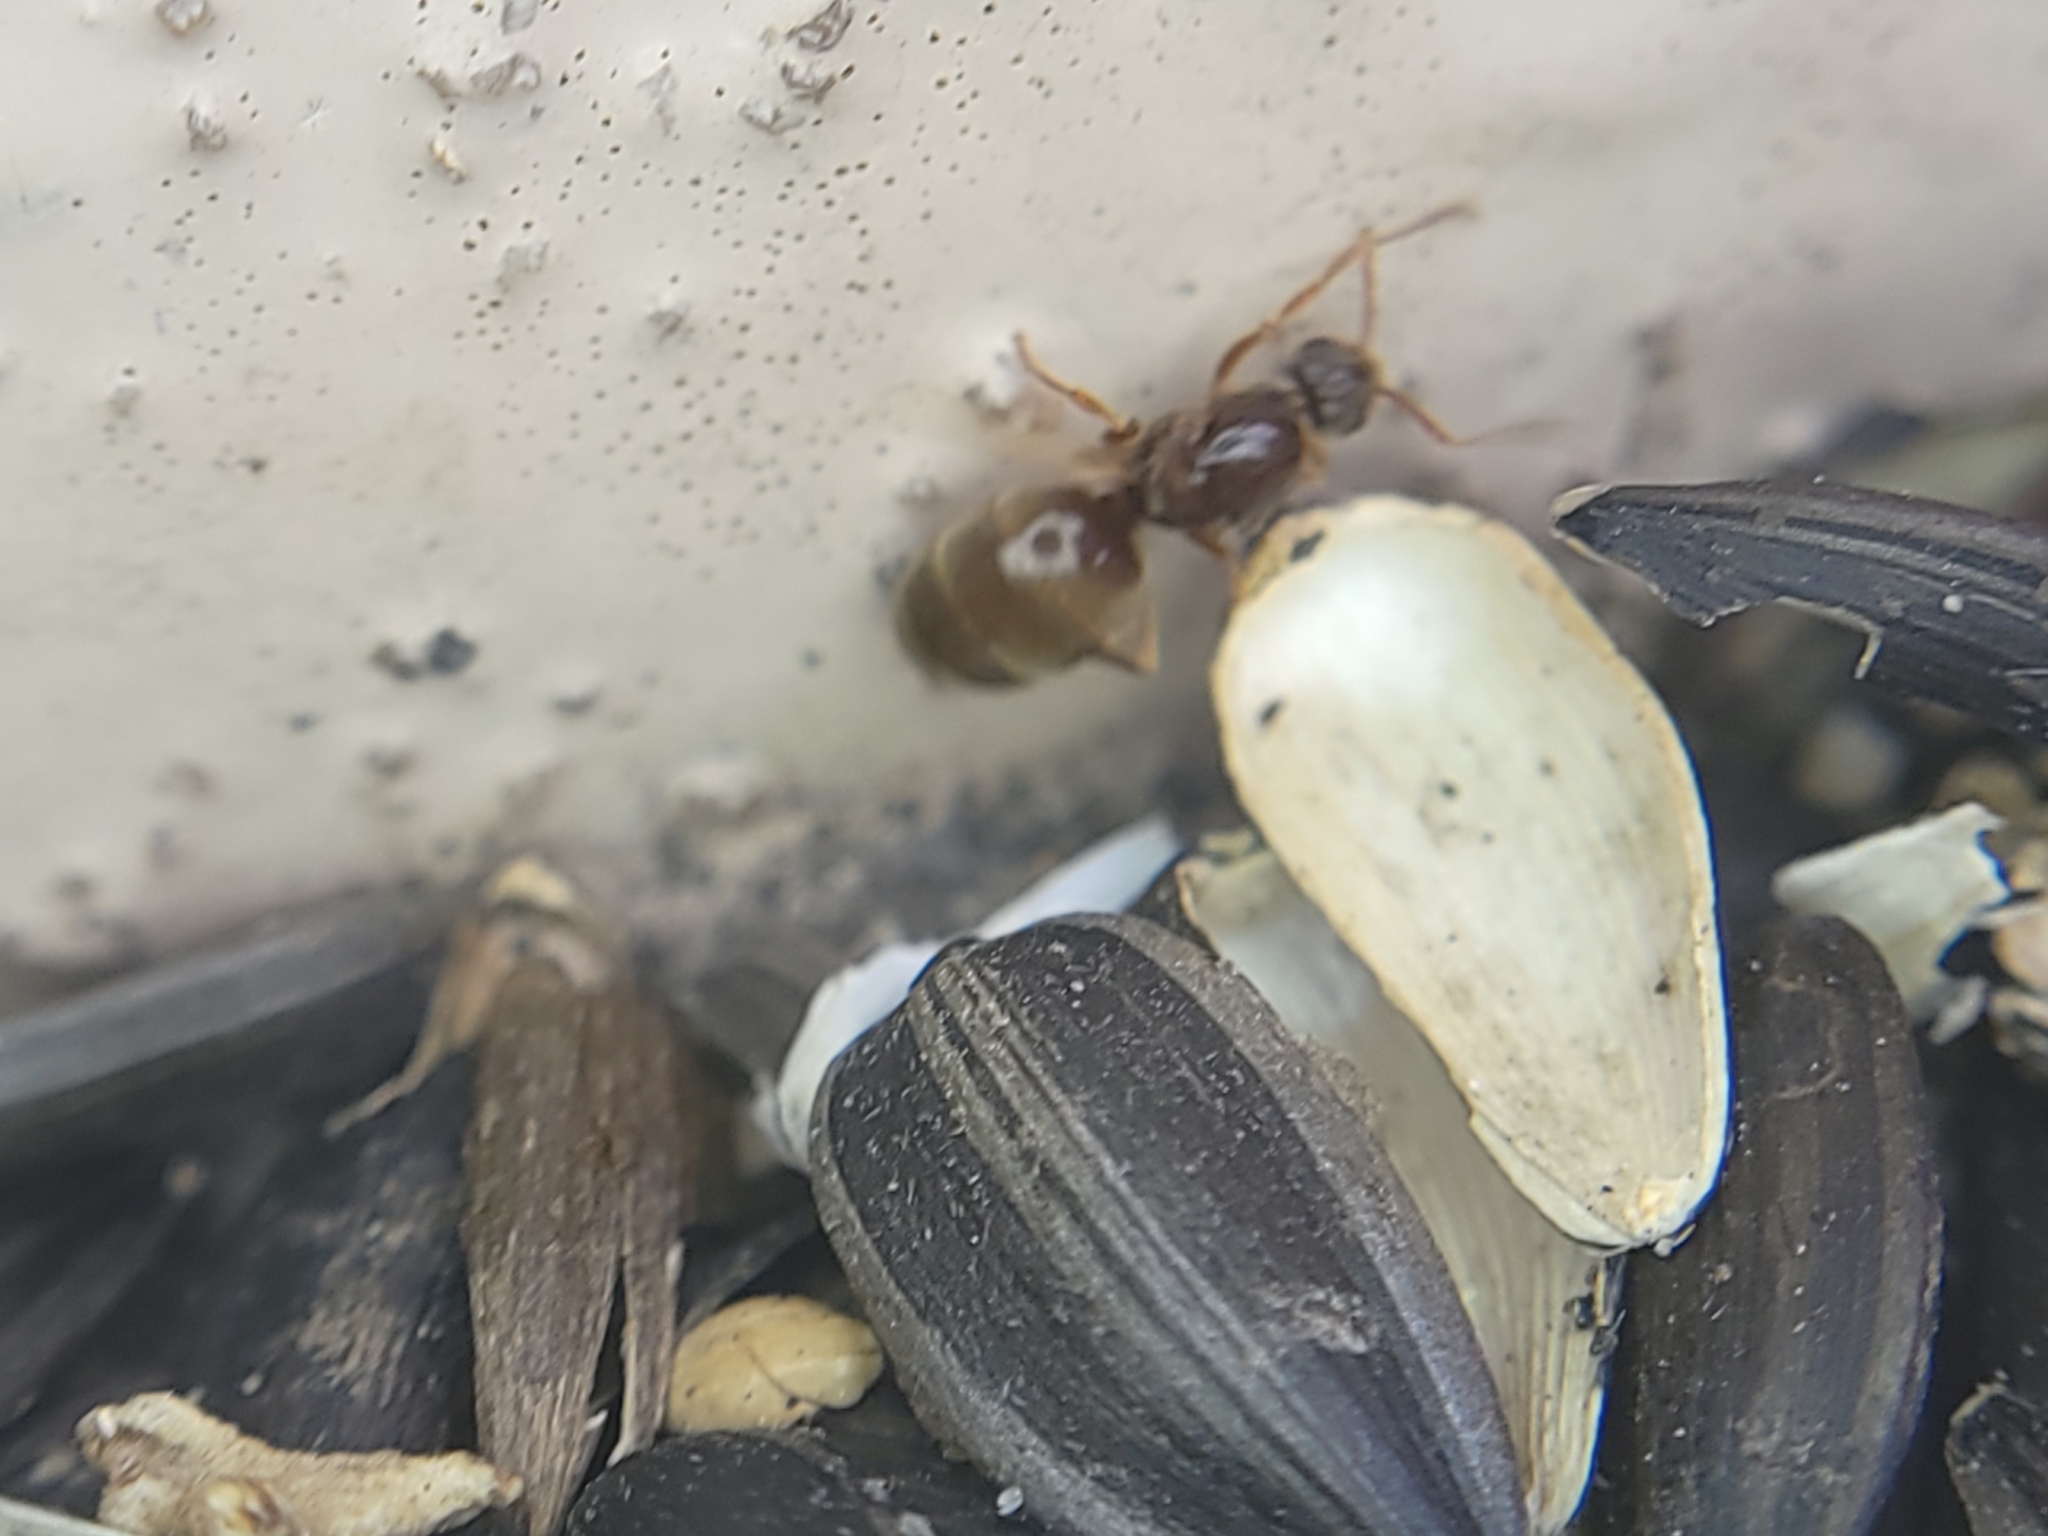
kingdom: Animalia
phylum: Arthropoda
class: Insecta
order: Hymenoptera
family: Formicidae
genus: Prenolepis
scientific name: Prenolepis imparis
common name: Small honey ant
